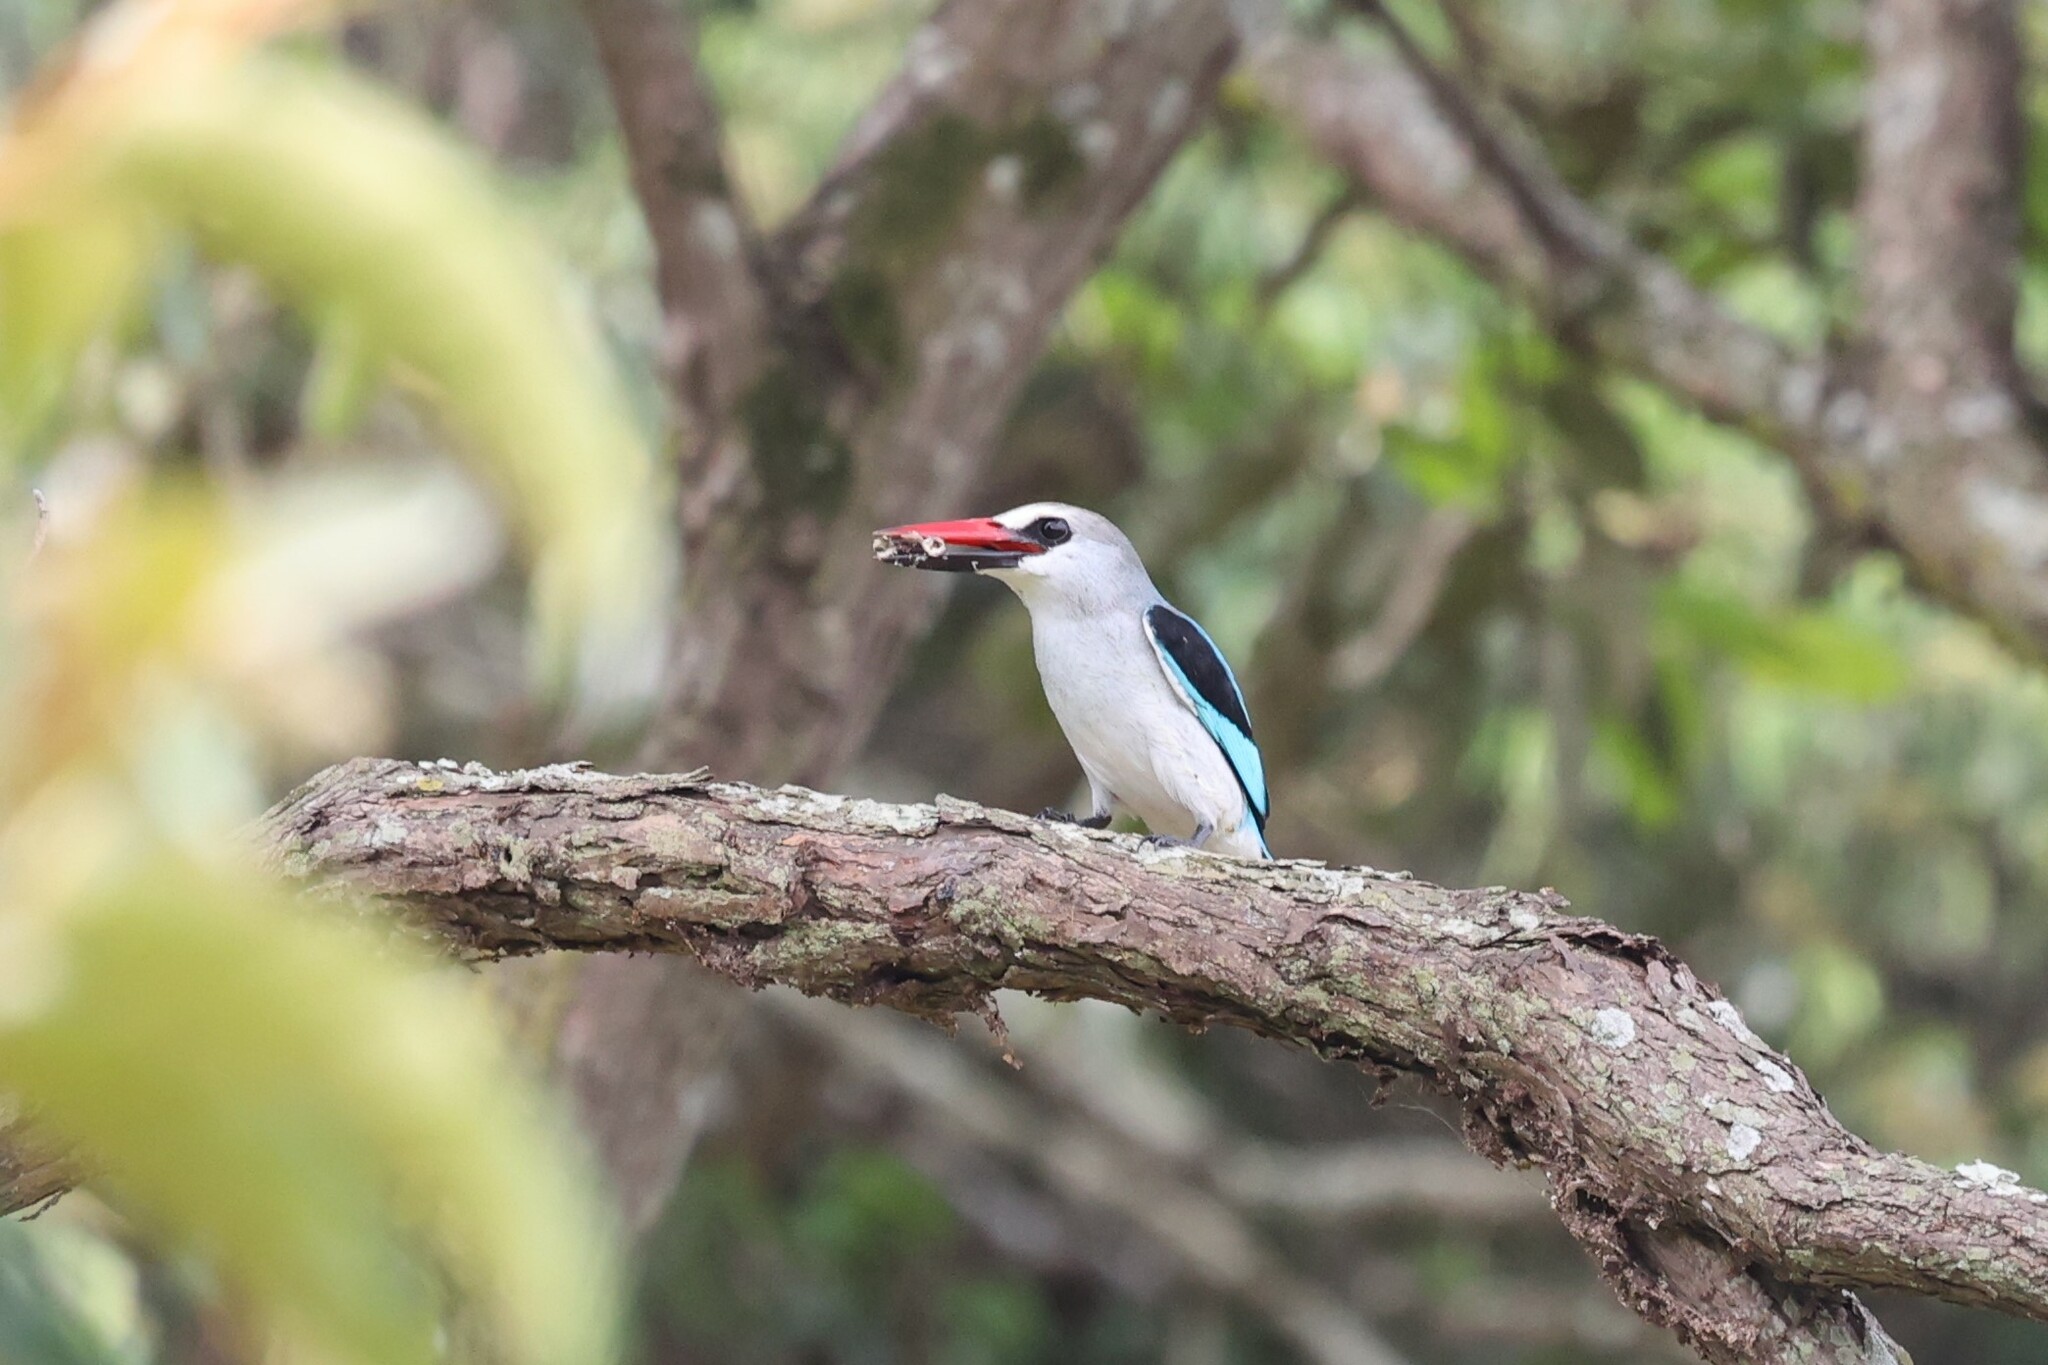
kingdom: Animalia
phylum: Chordata
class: Aves
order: Coraciiformes
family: Alcedinidae
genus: Halcyon
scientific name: Halcyon senegalensis
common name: Woodland kingfisher
